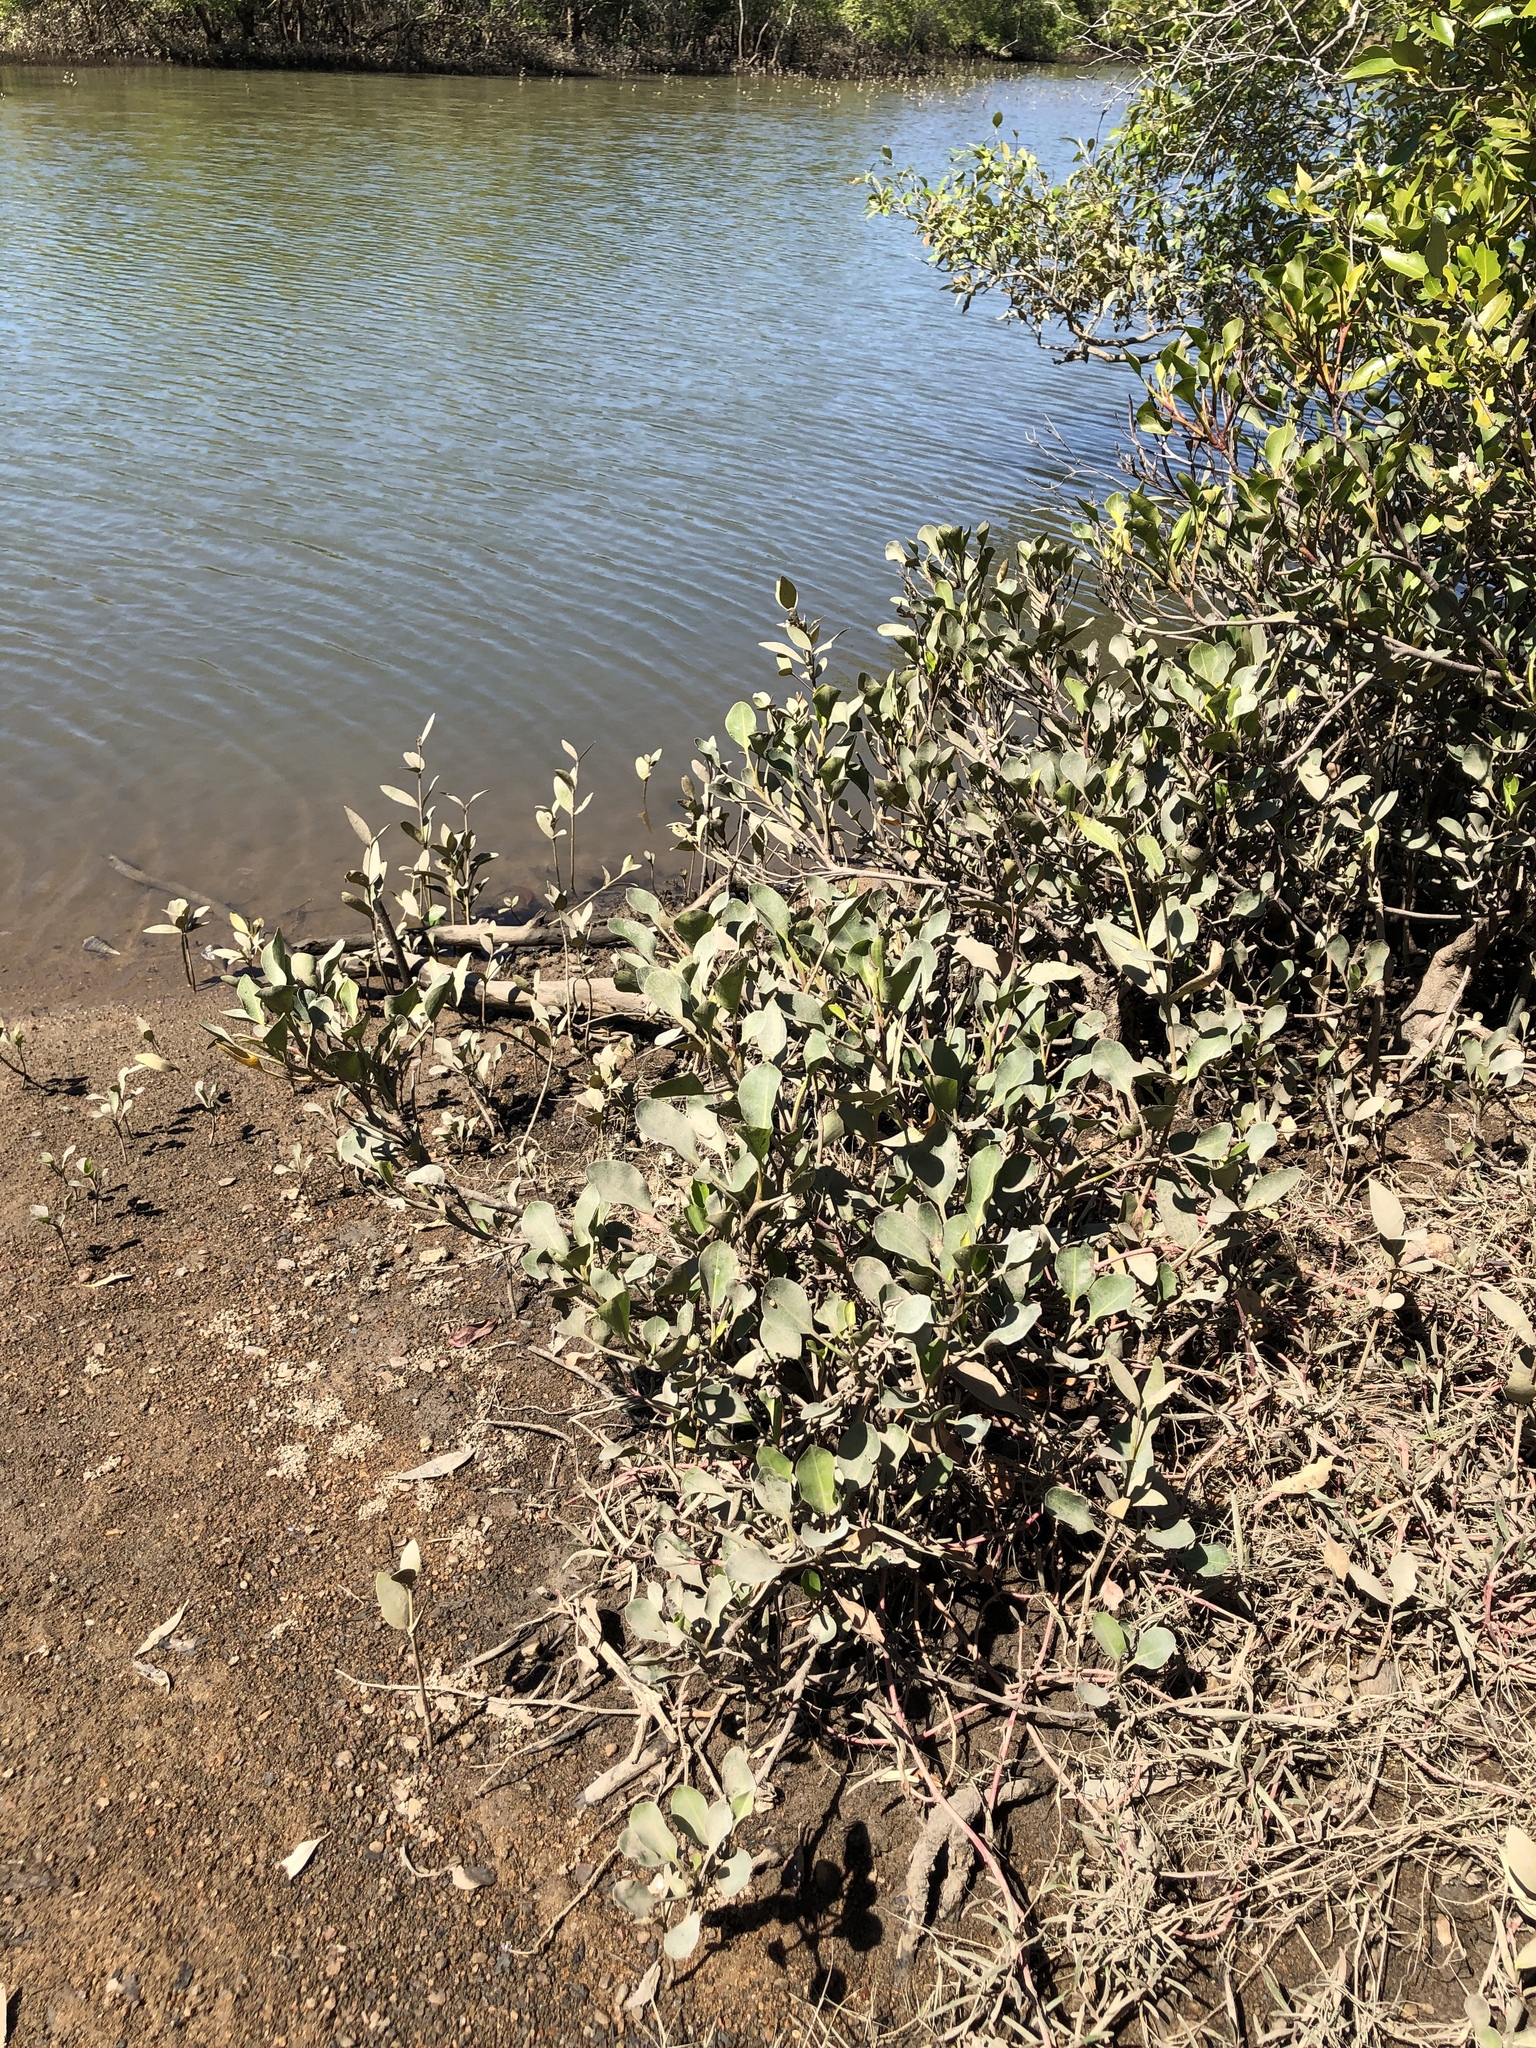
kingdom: Plantae
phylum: Tracheophyta
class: Magnoliopsida
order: Caryophyllales
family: Plumbaginaceae
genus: Aegialitis
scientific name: Aegialitis annulata
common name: Club mangrove
